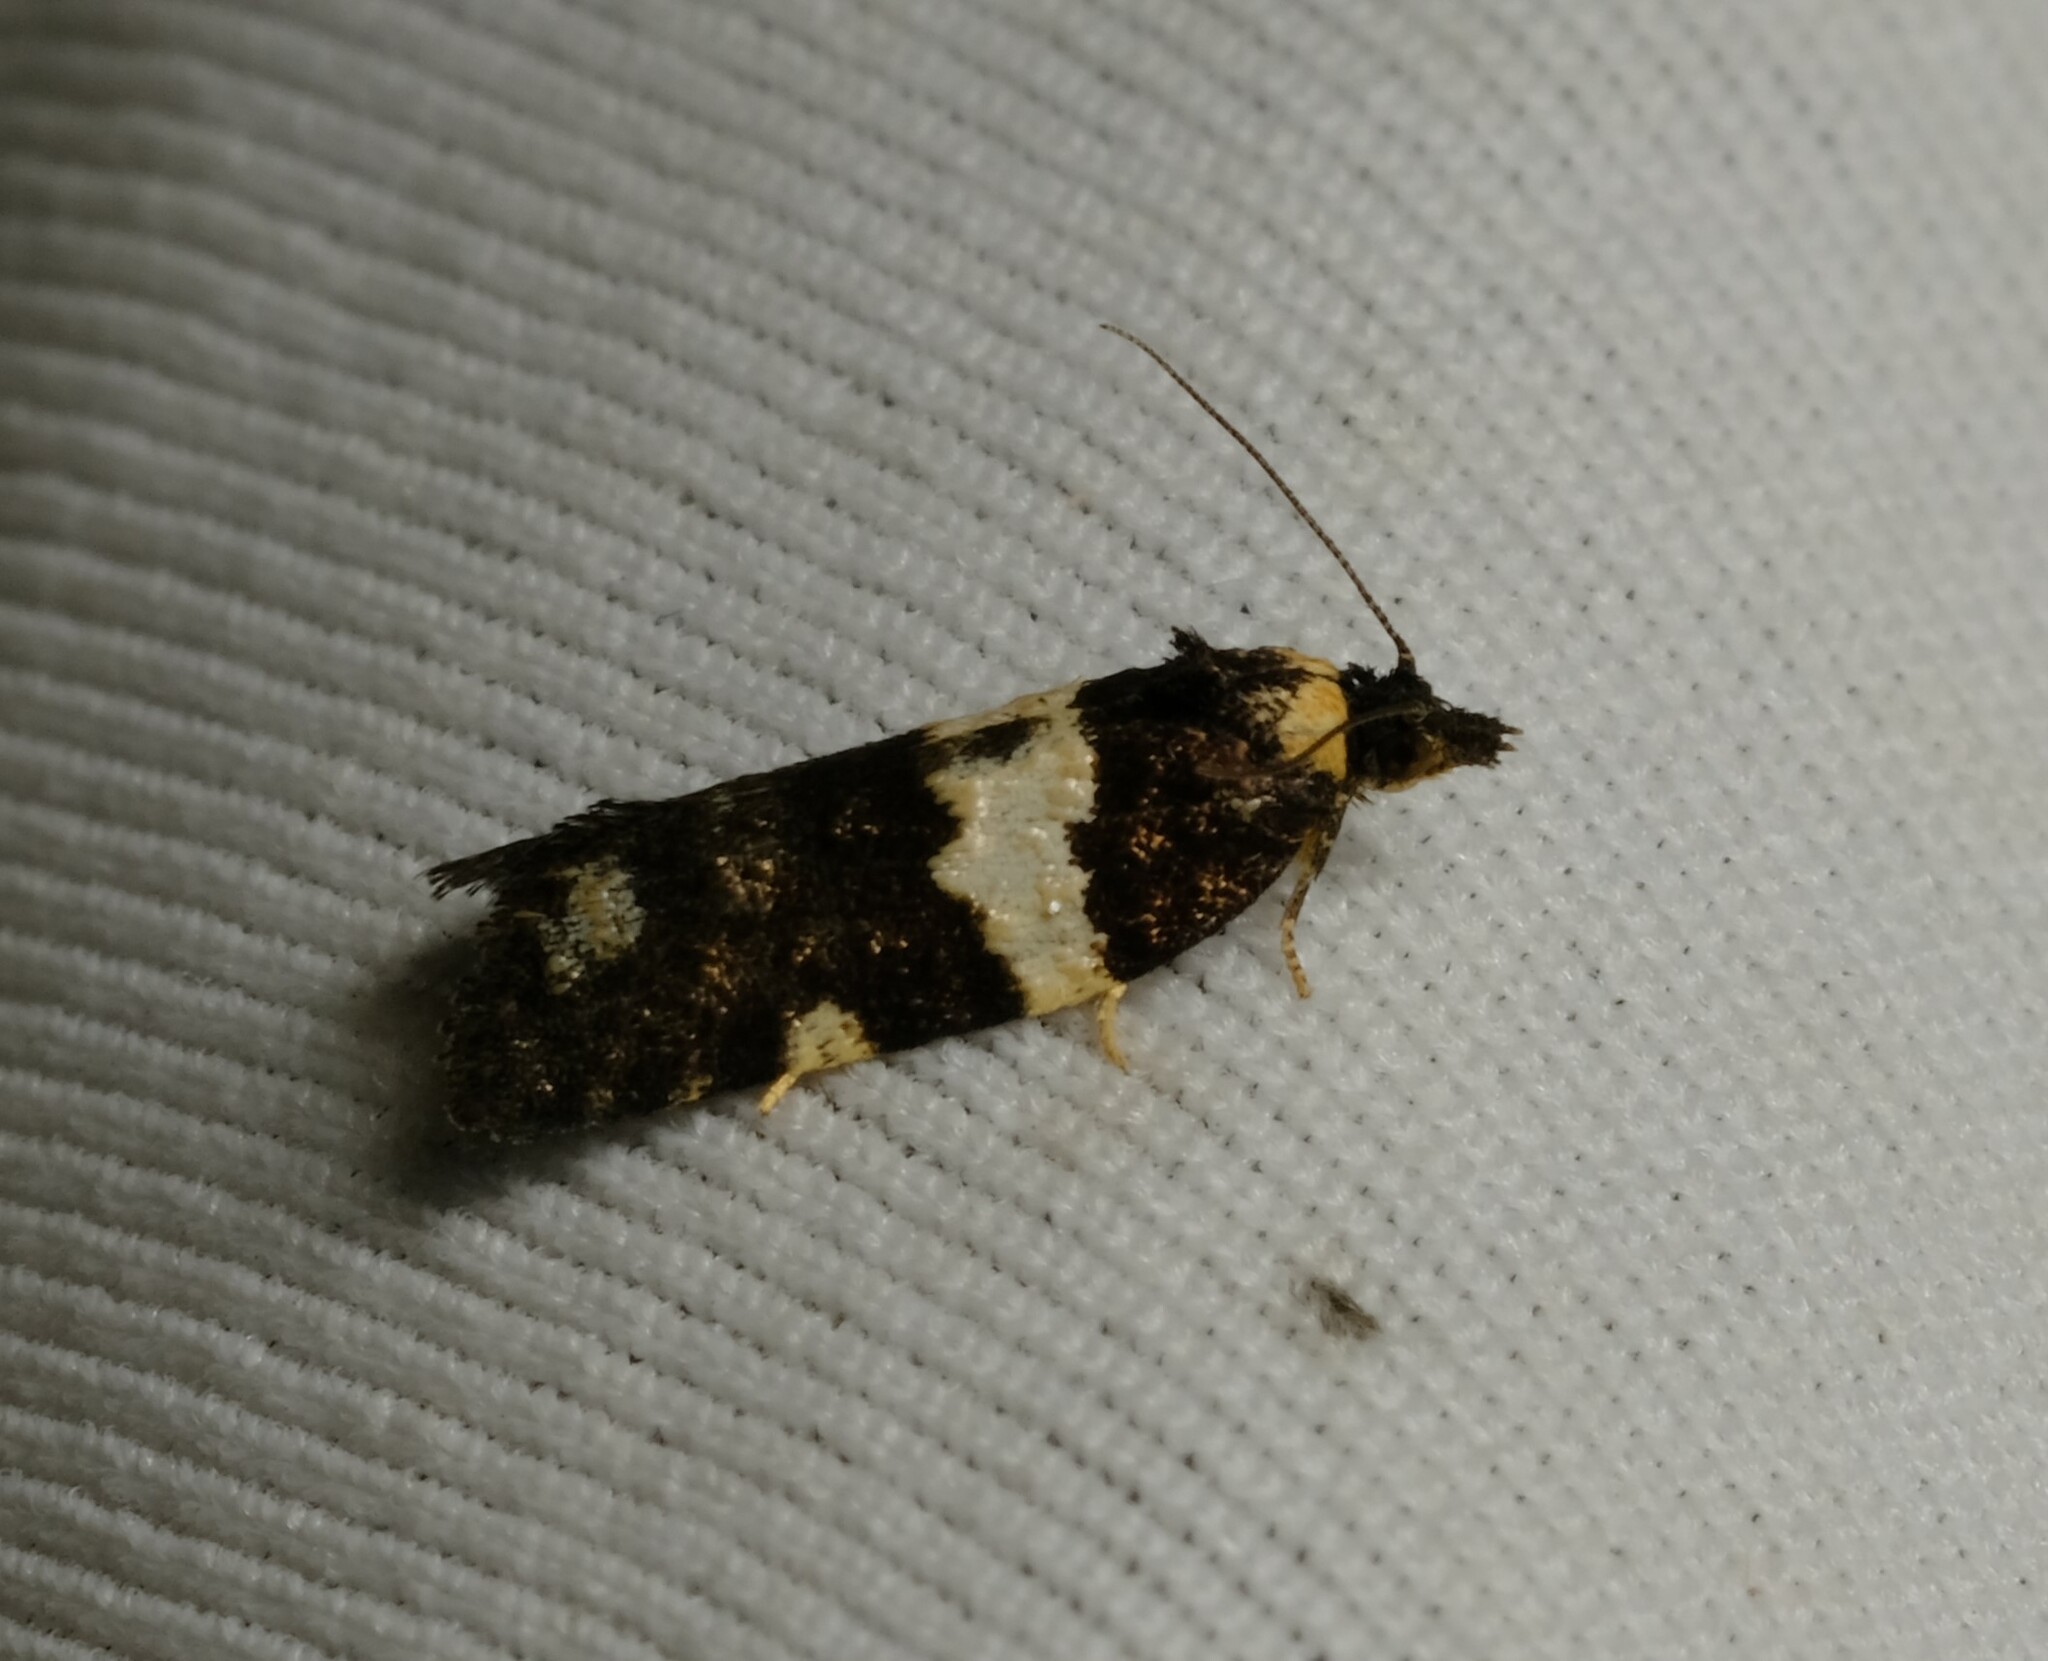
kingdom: Animalia
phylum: Arthropoda
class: Insecta
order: Lepidoptera
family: Tortricidae
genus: Dichelia
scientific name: Dichelia cosmopis
